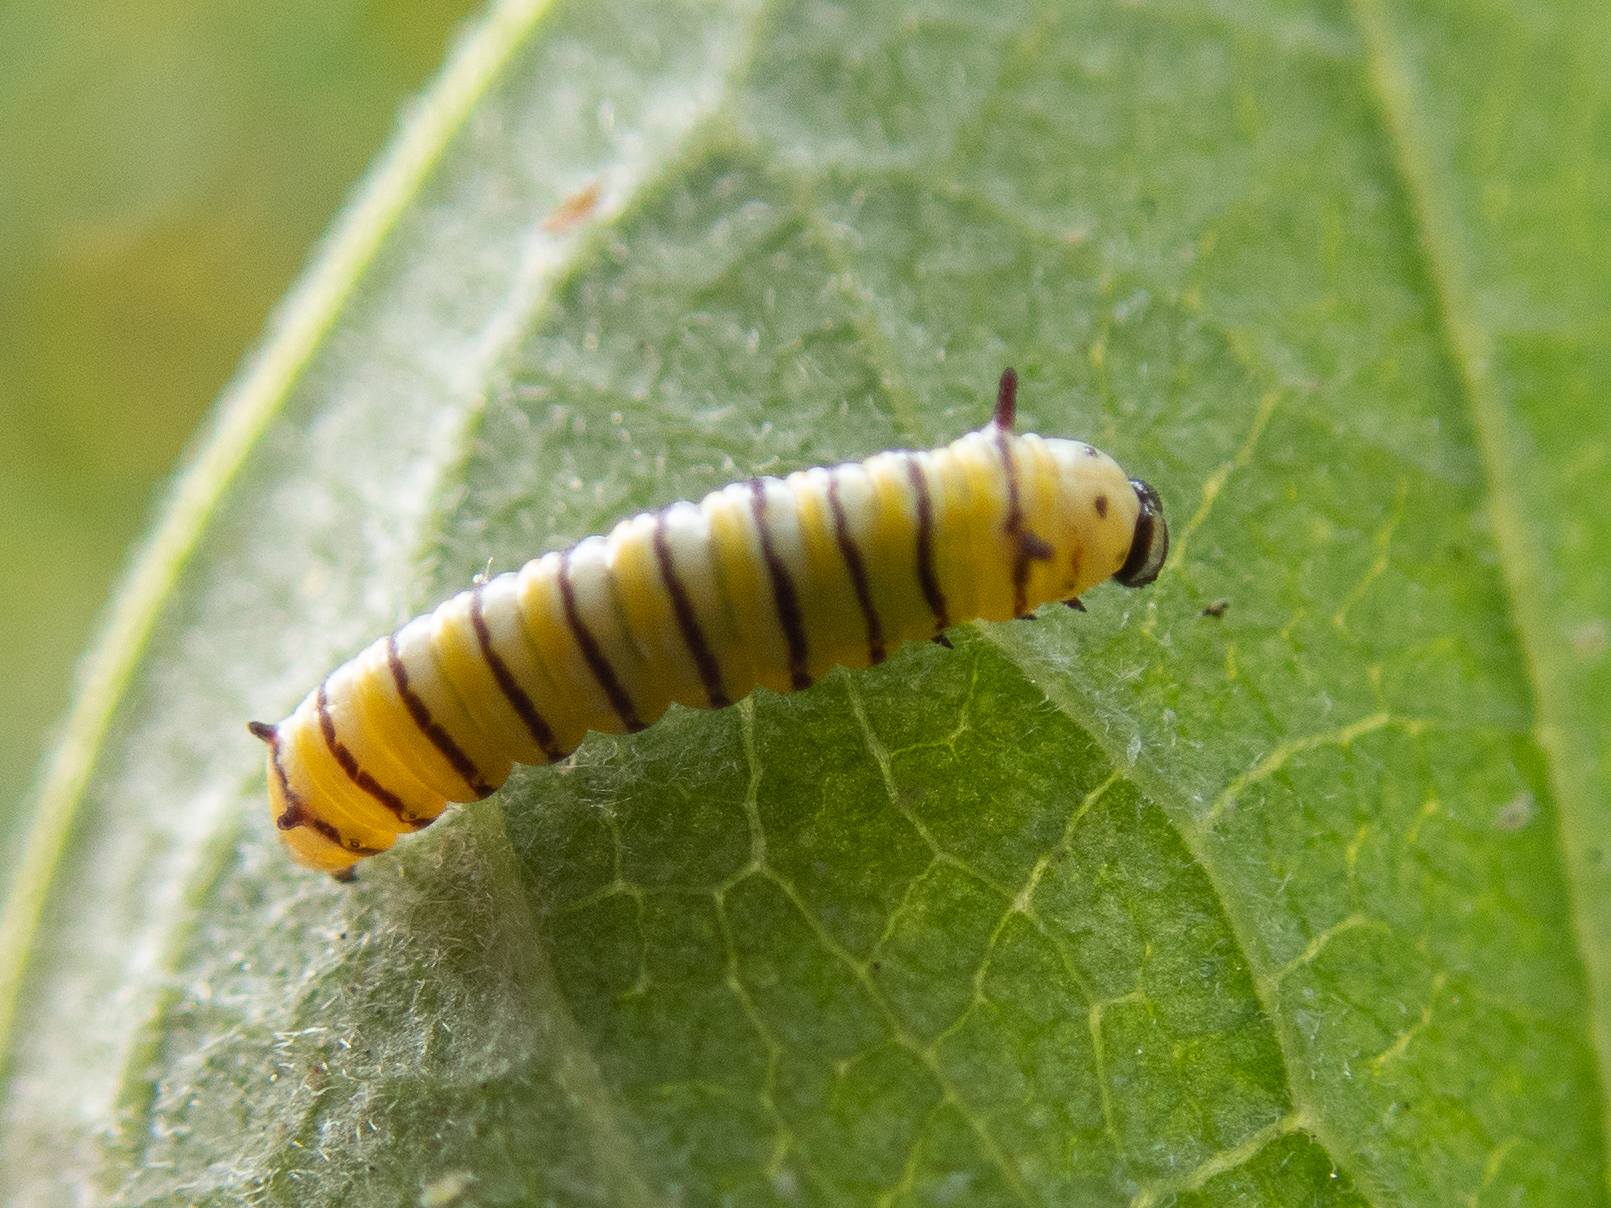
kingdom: Animalia
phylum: Arthropoda
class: Insecta
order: Lepidoptera
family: Nymphalidae
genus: Danaus
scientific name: Danaus plexippus
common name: Monarch
